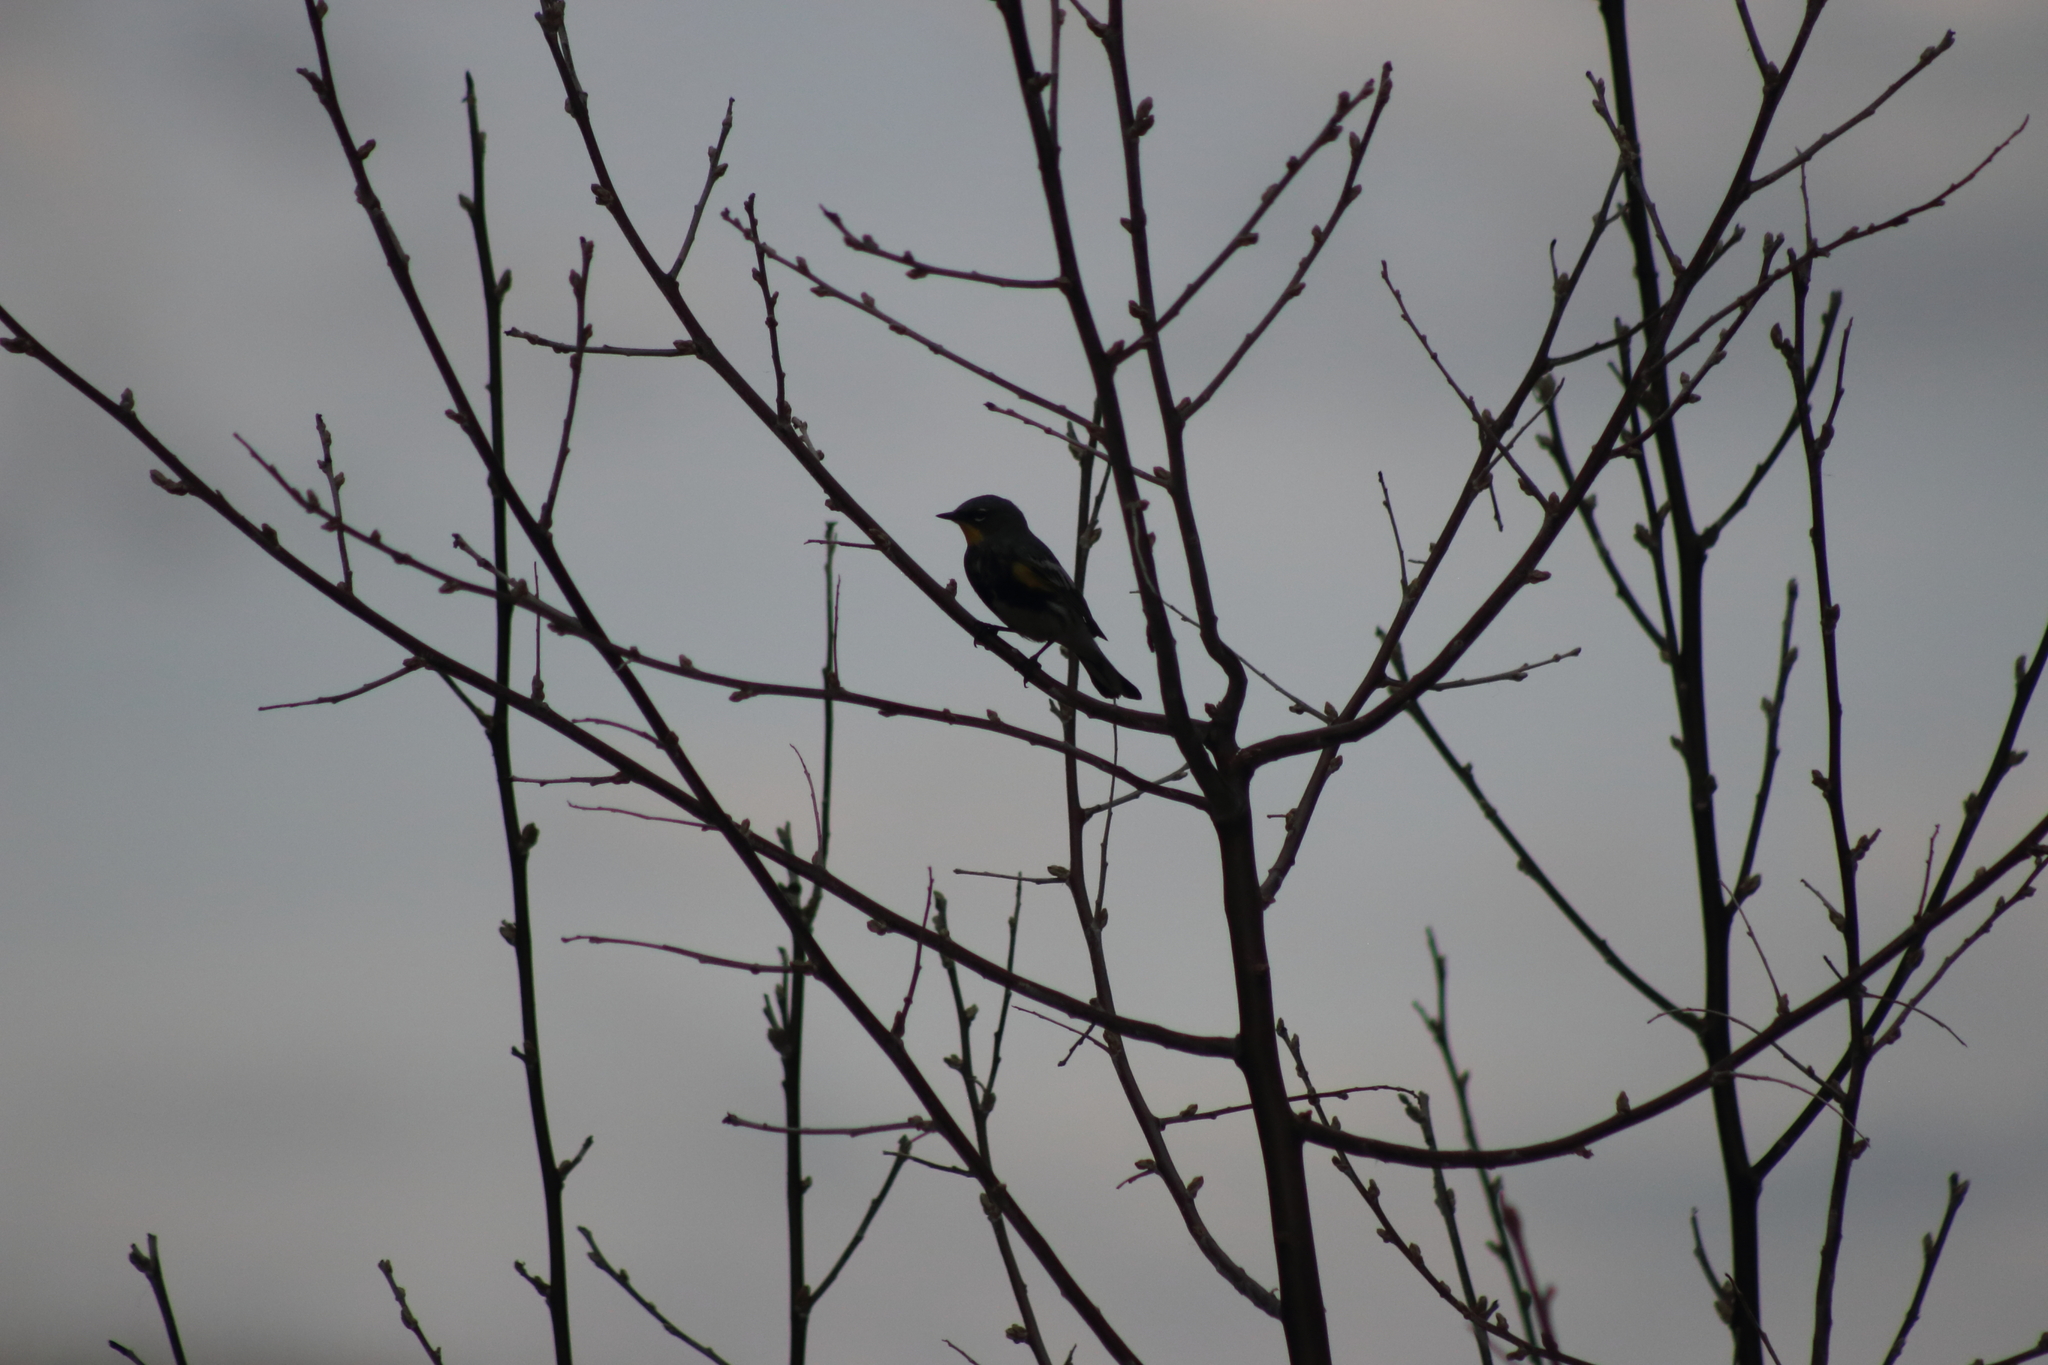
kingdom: Animalia
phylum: Chordata
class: Aves
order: Passeriformes
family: Parulidae
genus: Setophaga
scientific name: Setophaga coronata
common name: Myrtle warbler
